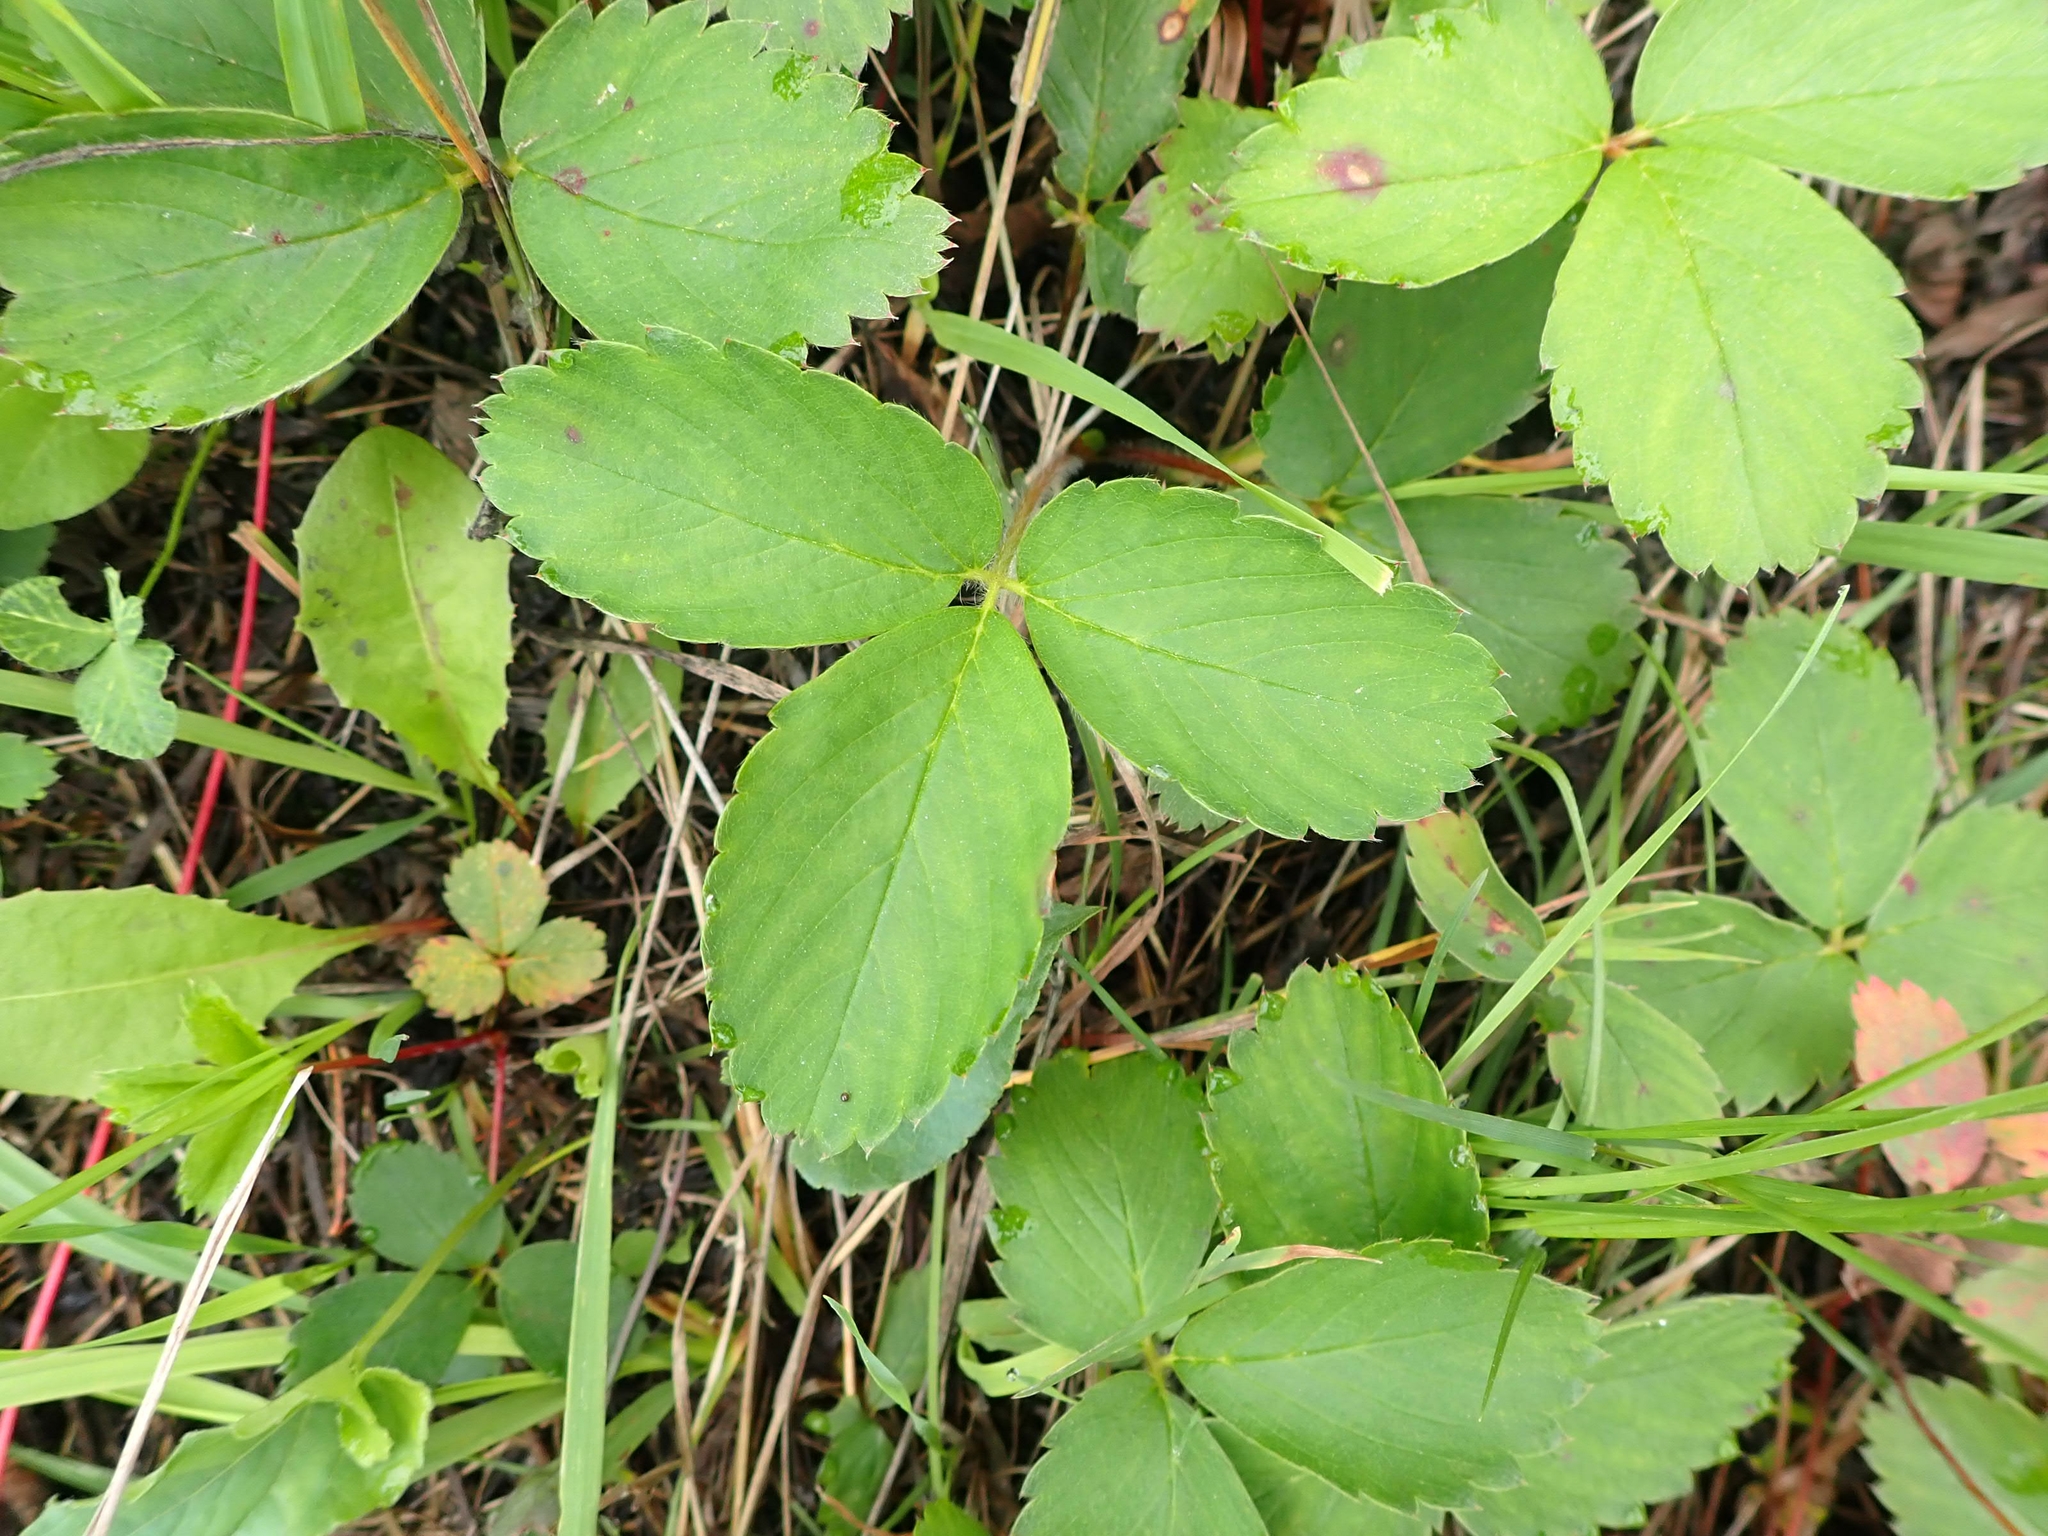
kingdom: Plantae
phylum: Tracheophyta
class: Magnoliopsida
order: Rosales
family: Rosaceae
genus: Fragaria
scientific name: Fragaria virginiana
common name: Thickleaved wild strawberry
